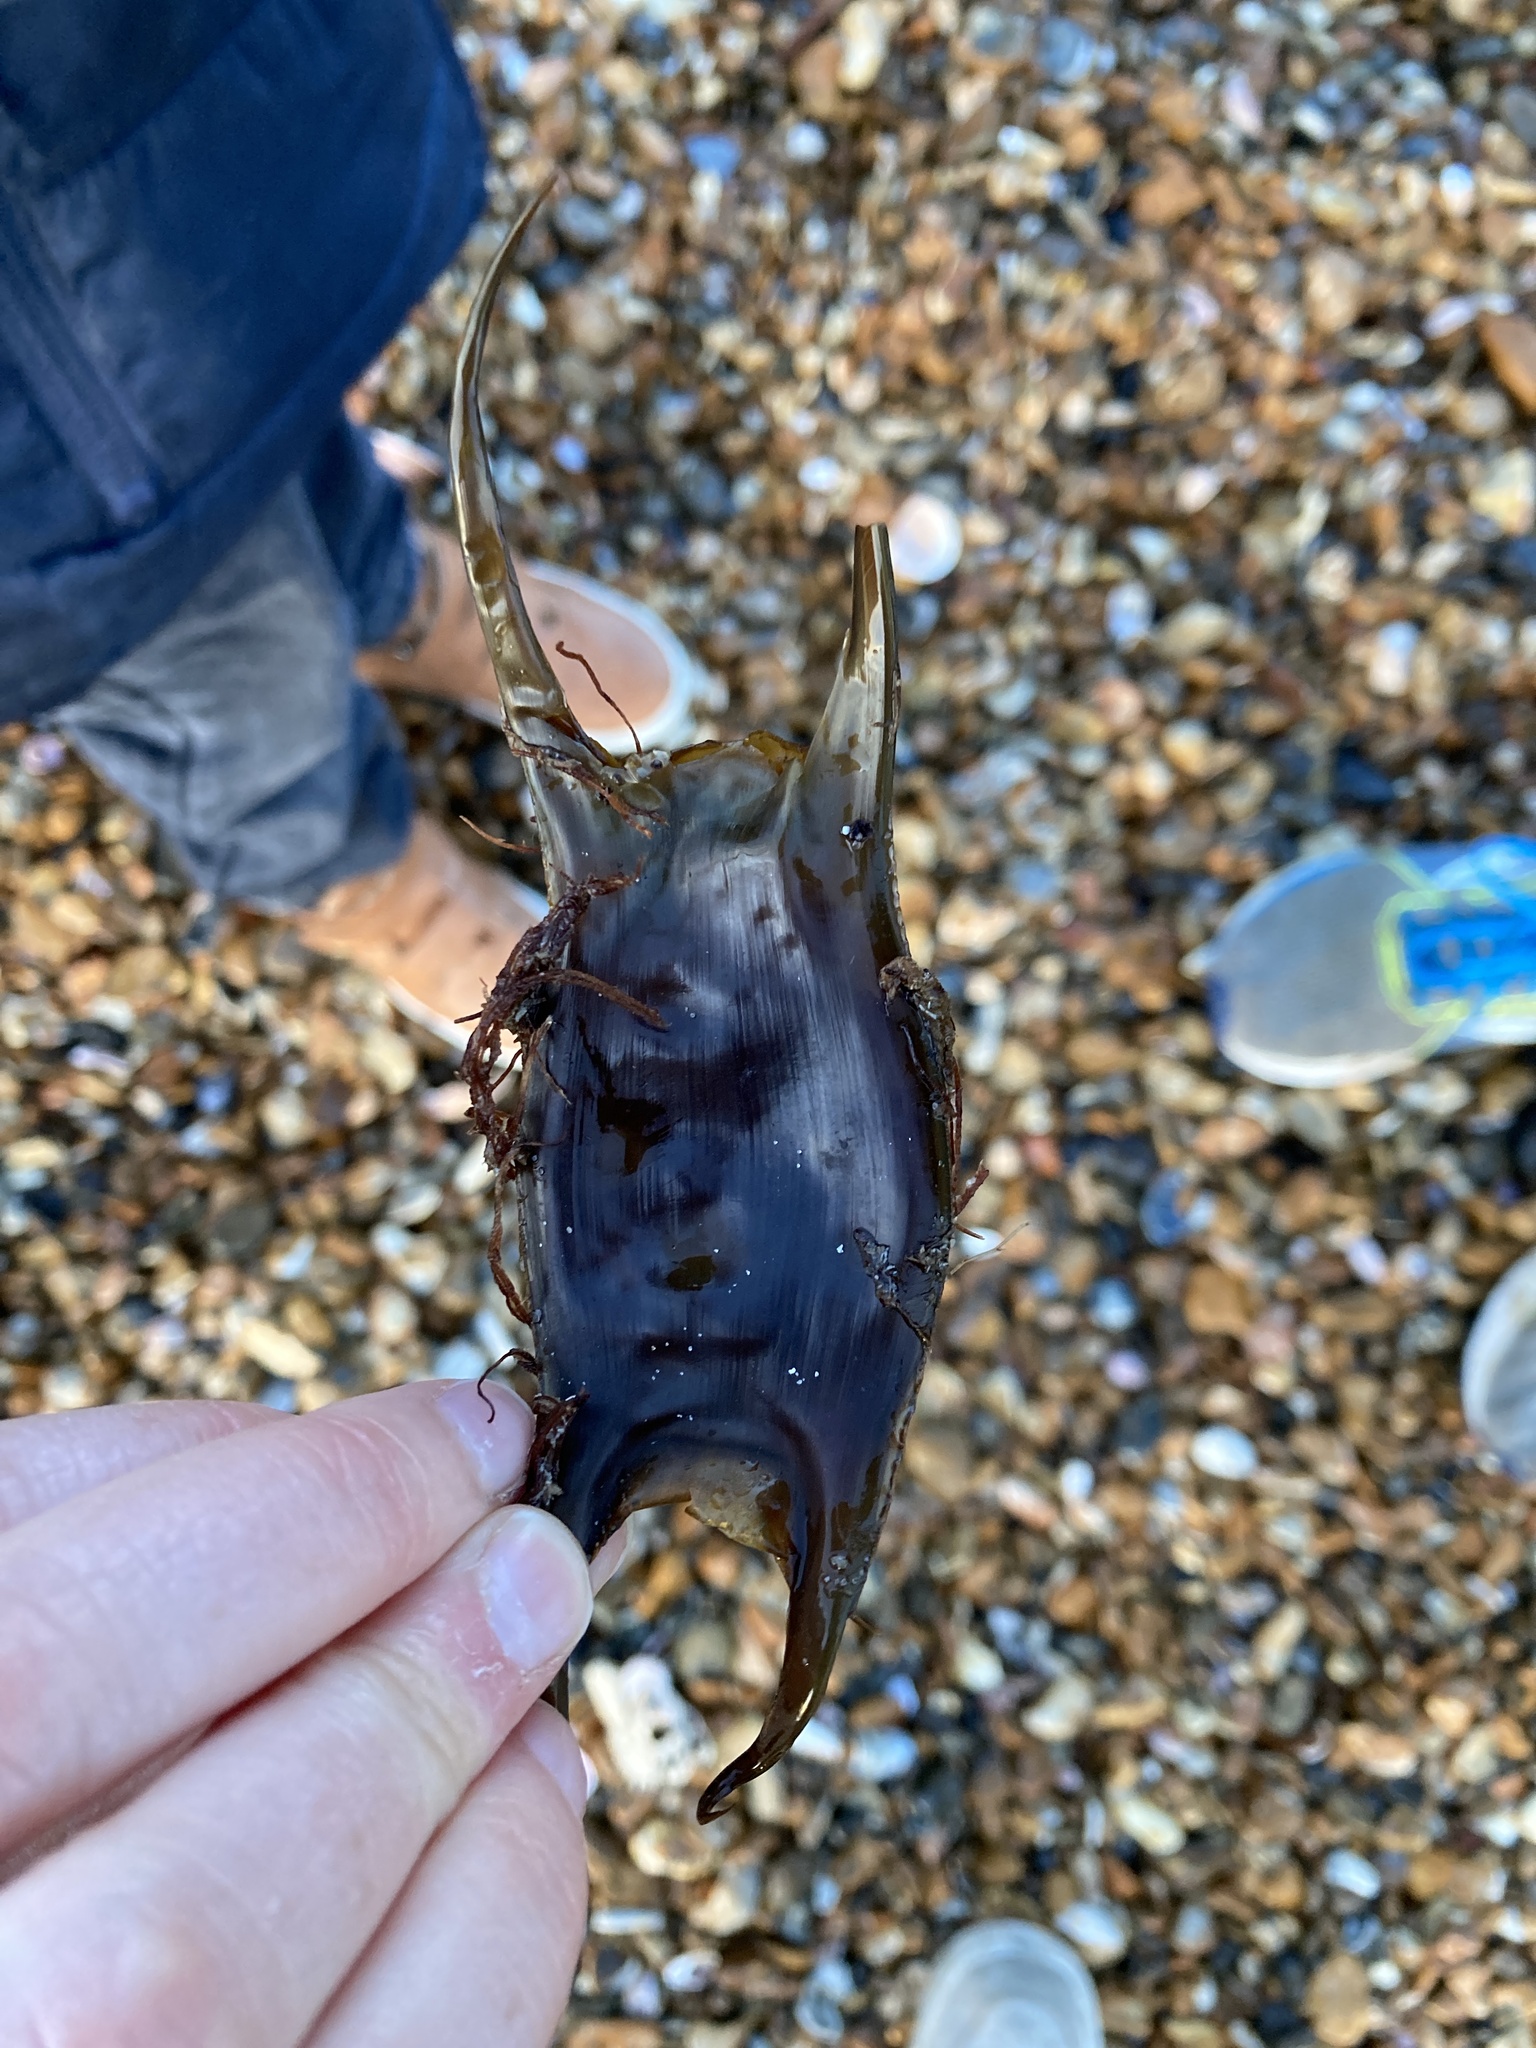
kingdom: Animalia
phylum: Chordata
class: Elasmobranchii
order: Rajiformes
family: Rajidae
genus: Raja
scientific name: Raja undulata
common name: Undulate ray
